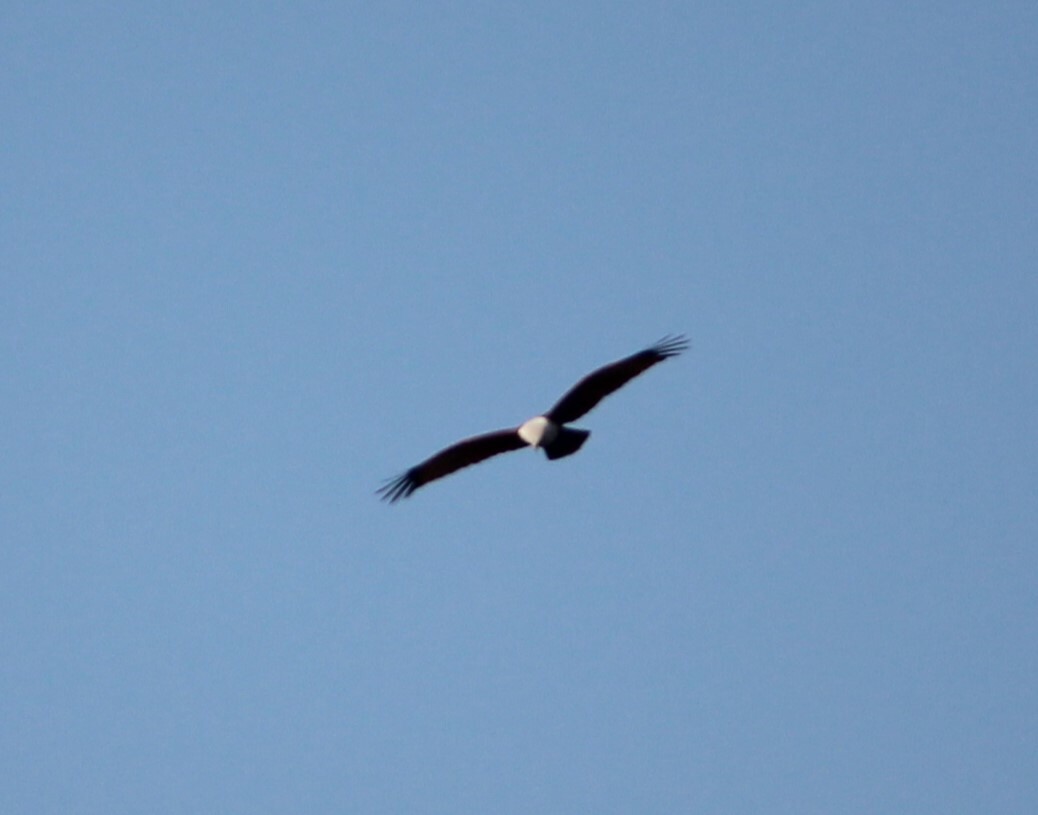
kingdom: Animalia
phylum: Chordata
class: Aves
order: Accipitriformes
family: Accipitridae
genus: Haliastur
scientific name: Haliastur indus
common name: Brahminy kite
